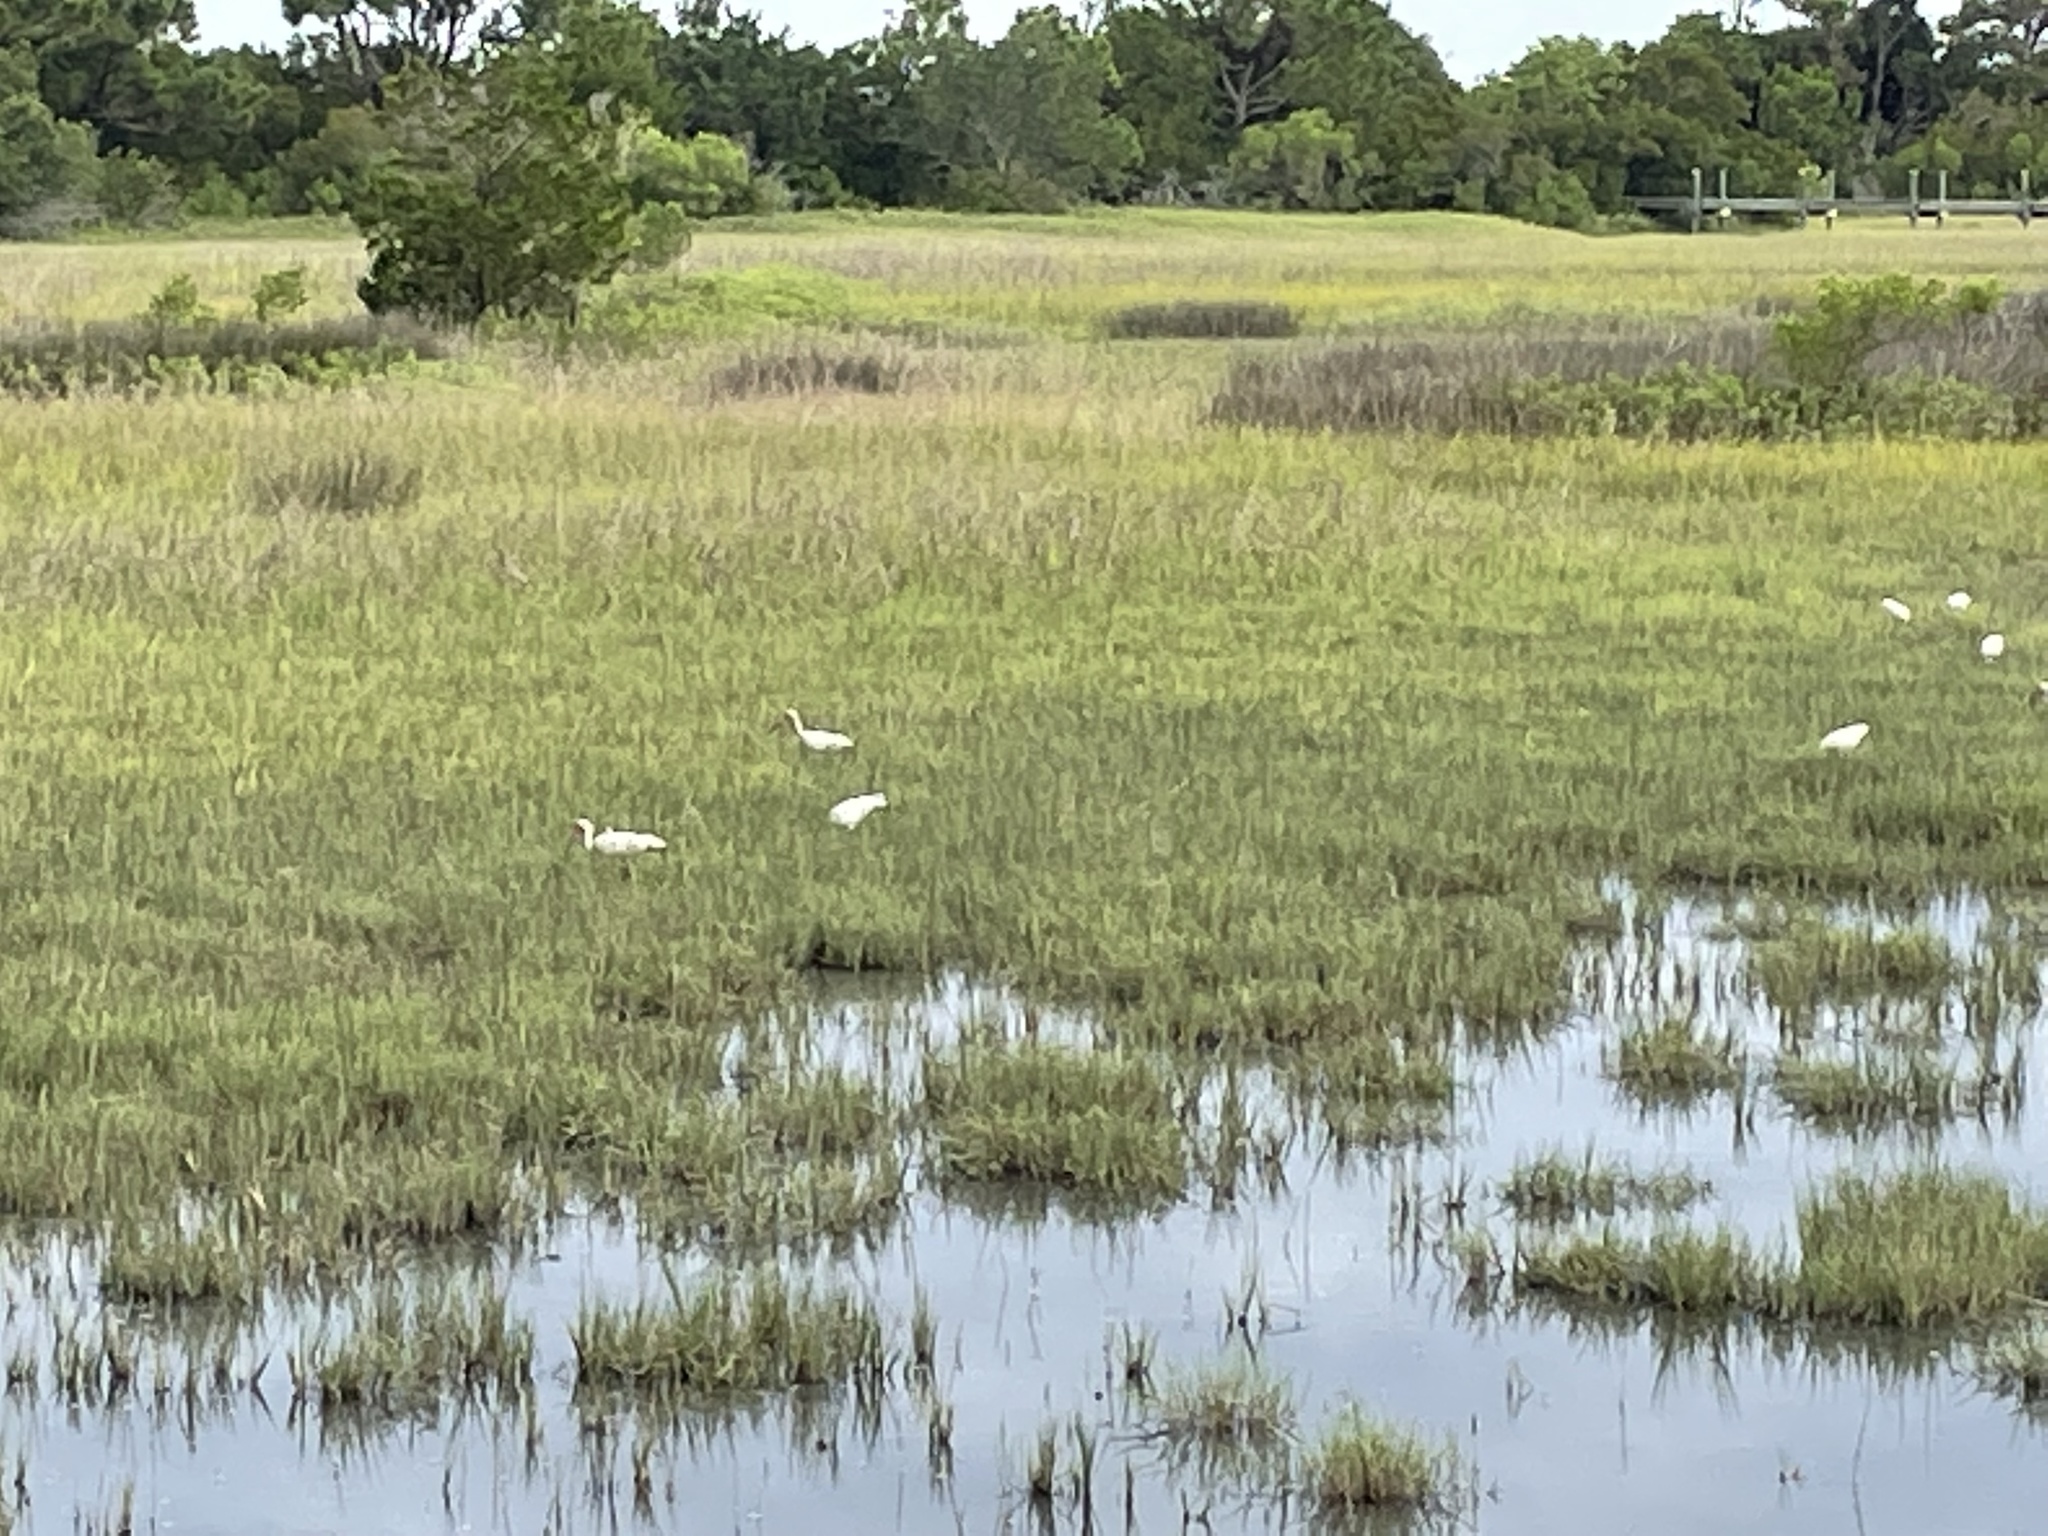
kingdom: Animalia
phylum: Chordata
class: Aves
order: Pelecaniformes
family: Threskiornithidae
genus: Eudocimus
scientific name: Eudocimus albus
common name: White ibis
